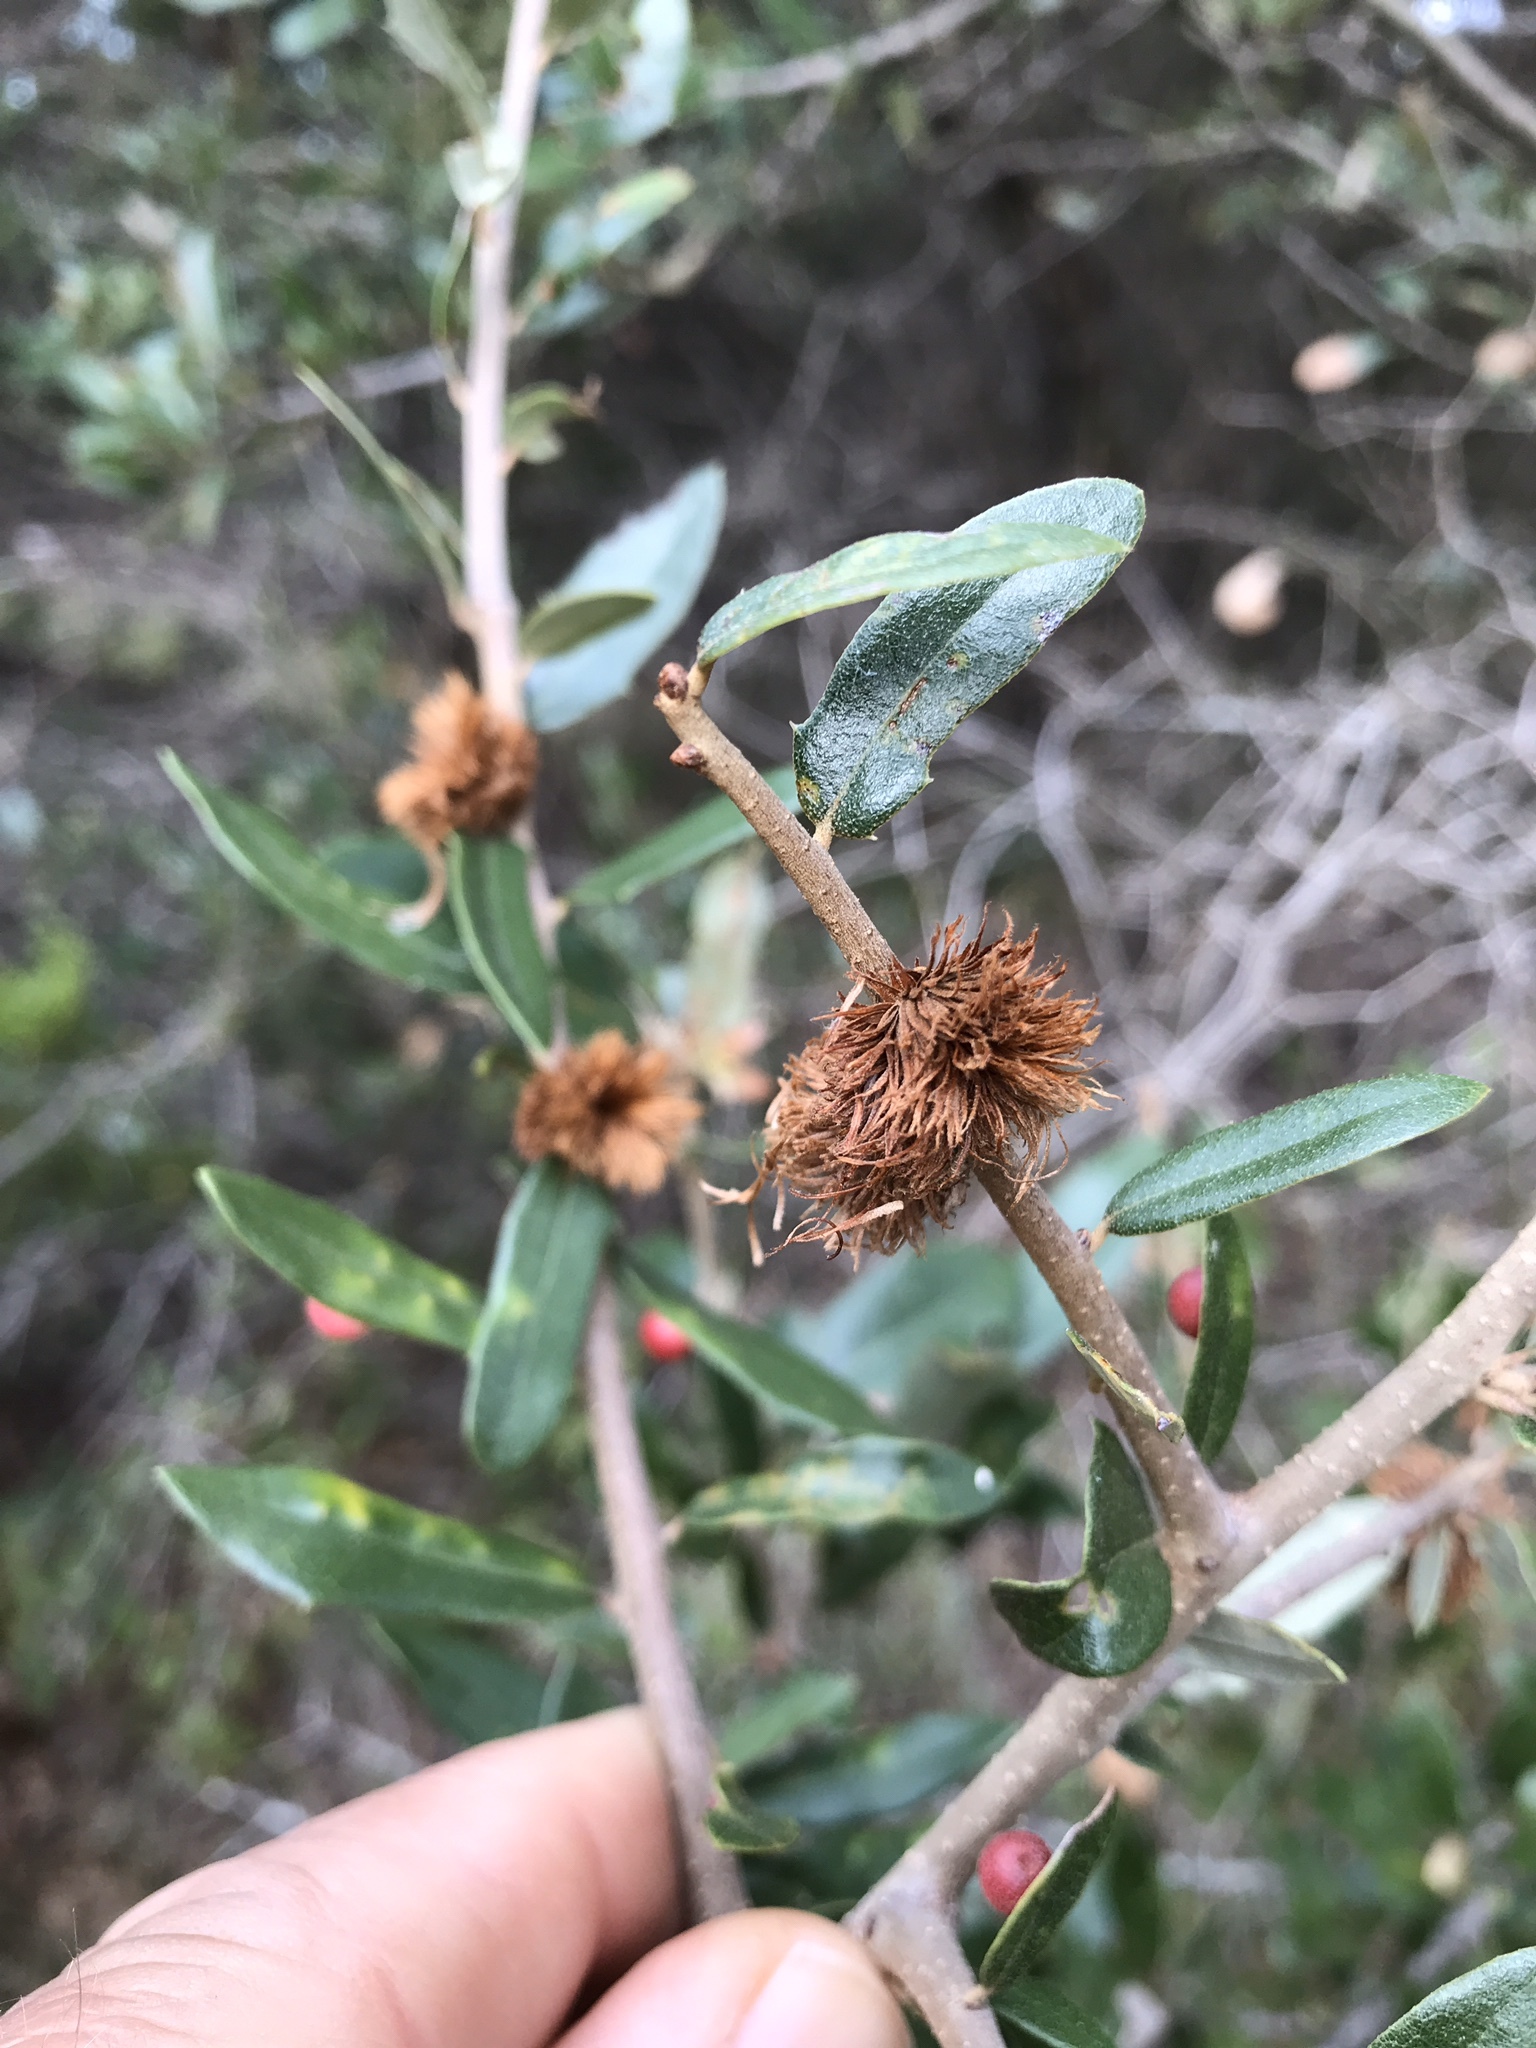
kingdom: Animalia
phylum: Arthropoda
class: Insecta
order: Hymenoptera
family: Cynipidae
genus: Andricus
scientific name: Andricus quercusfoliatus
